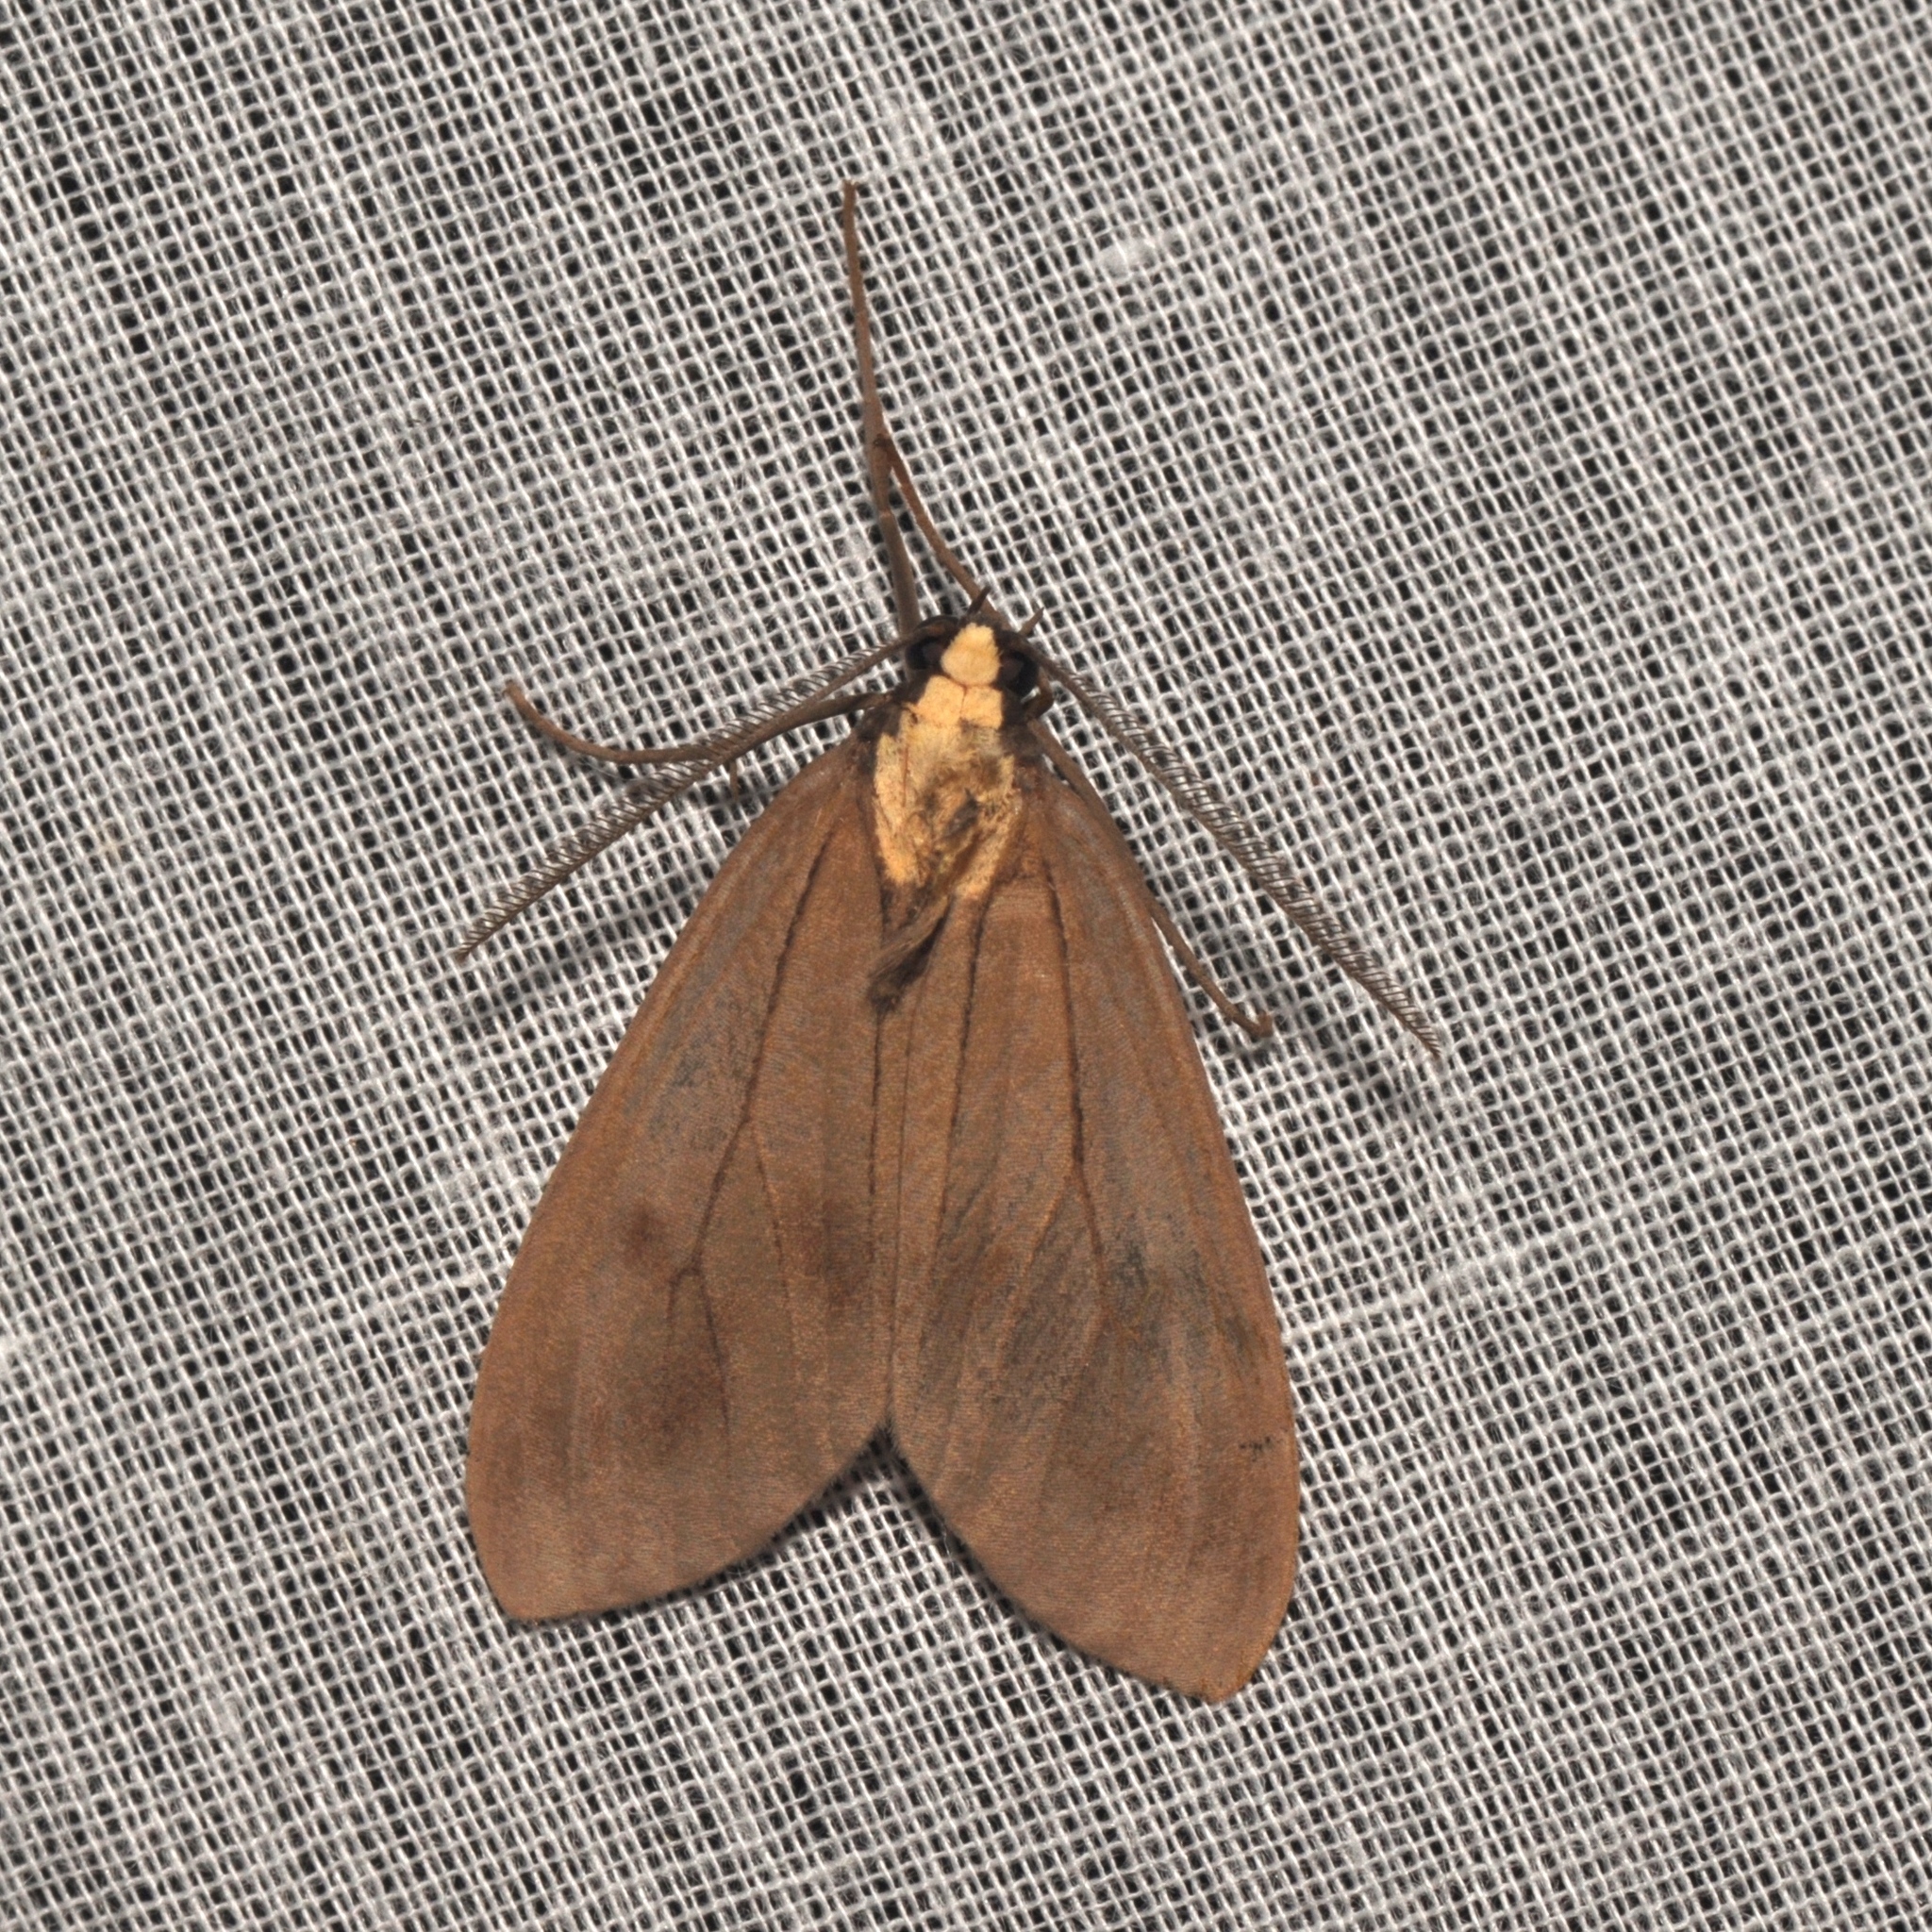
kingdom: Animalia
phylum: Arthropoda
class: Insecta
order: Lepidoptera
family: Erebidae
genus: Opharus
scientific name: Opharus basalis
